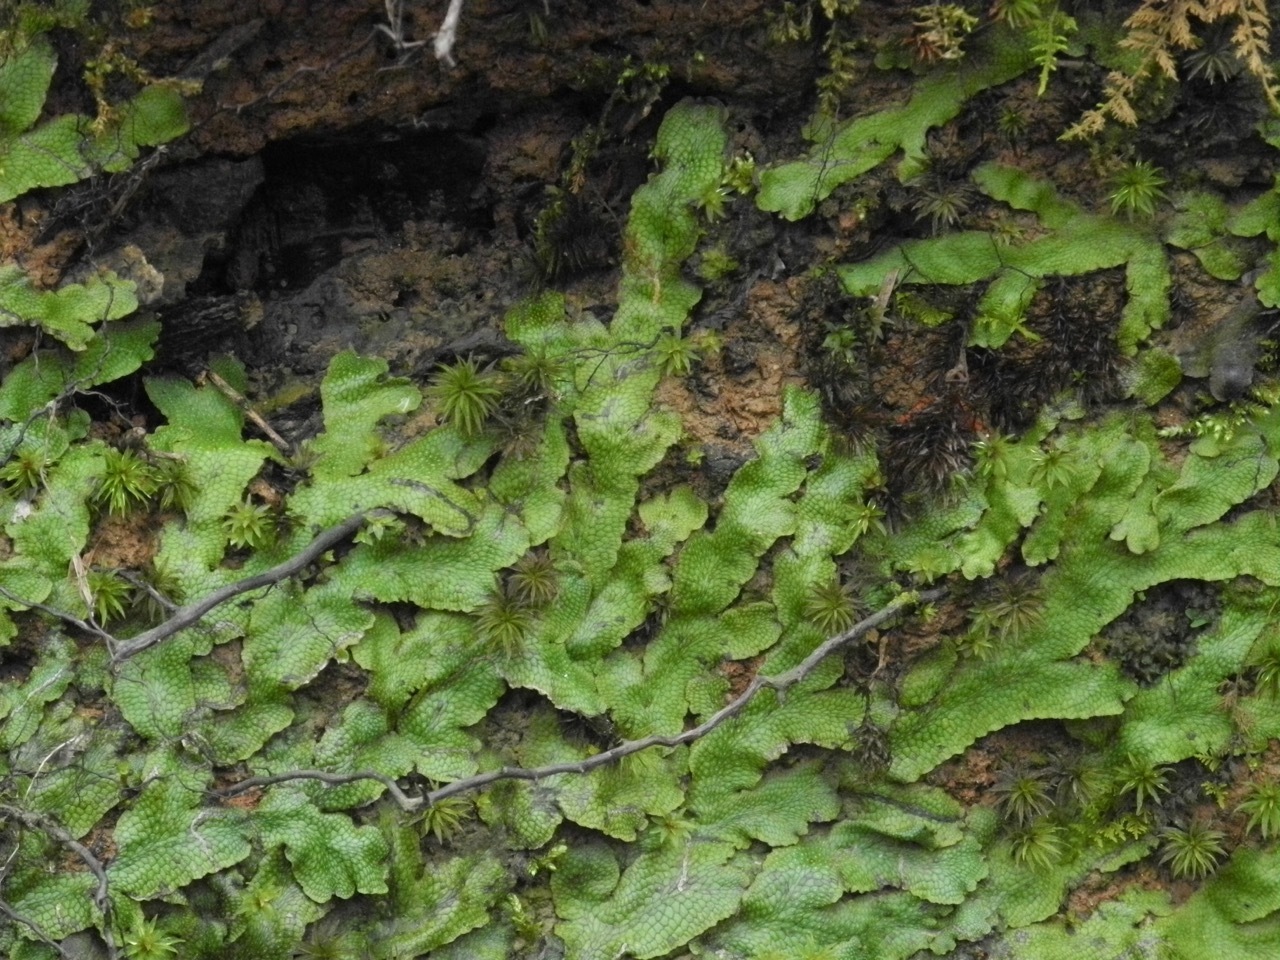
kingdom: Plantae
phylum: Marchantiophyta
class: Marchantiopsida
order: Marchantiales
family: Conocephalaceae
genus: Conocephalum
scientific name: Conocephalum salebrosum
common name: Cat-tongue liverwort
